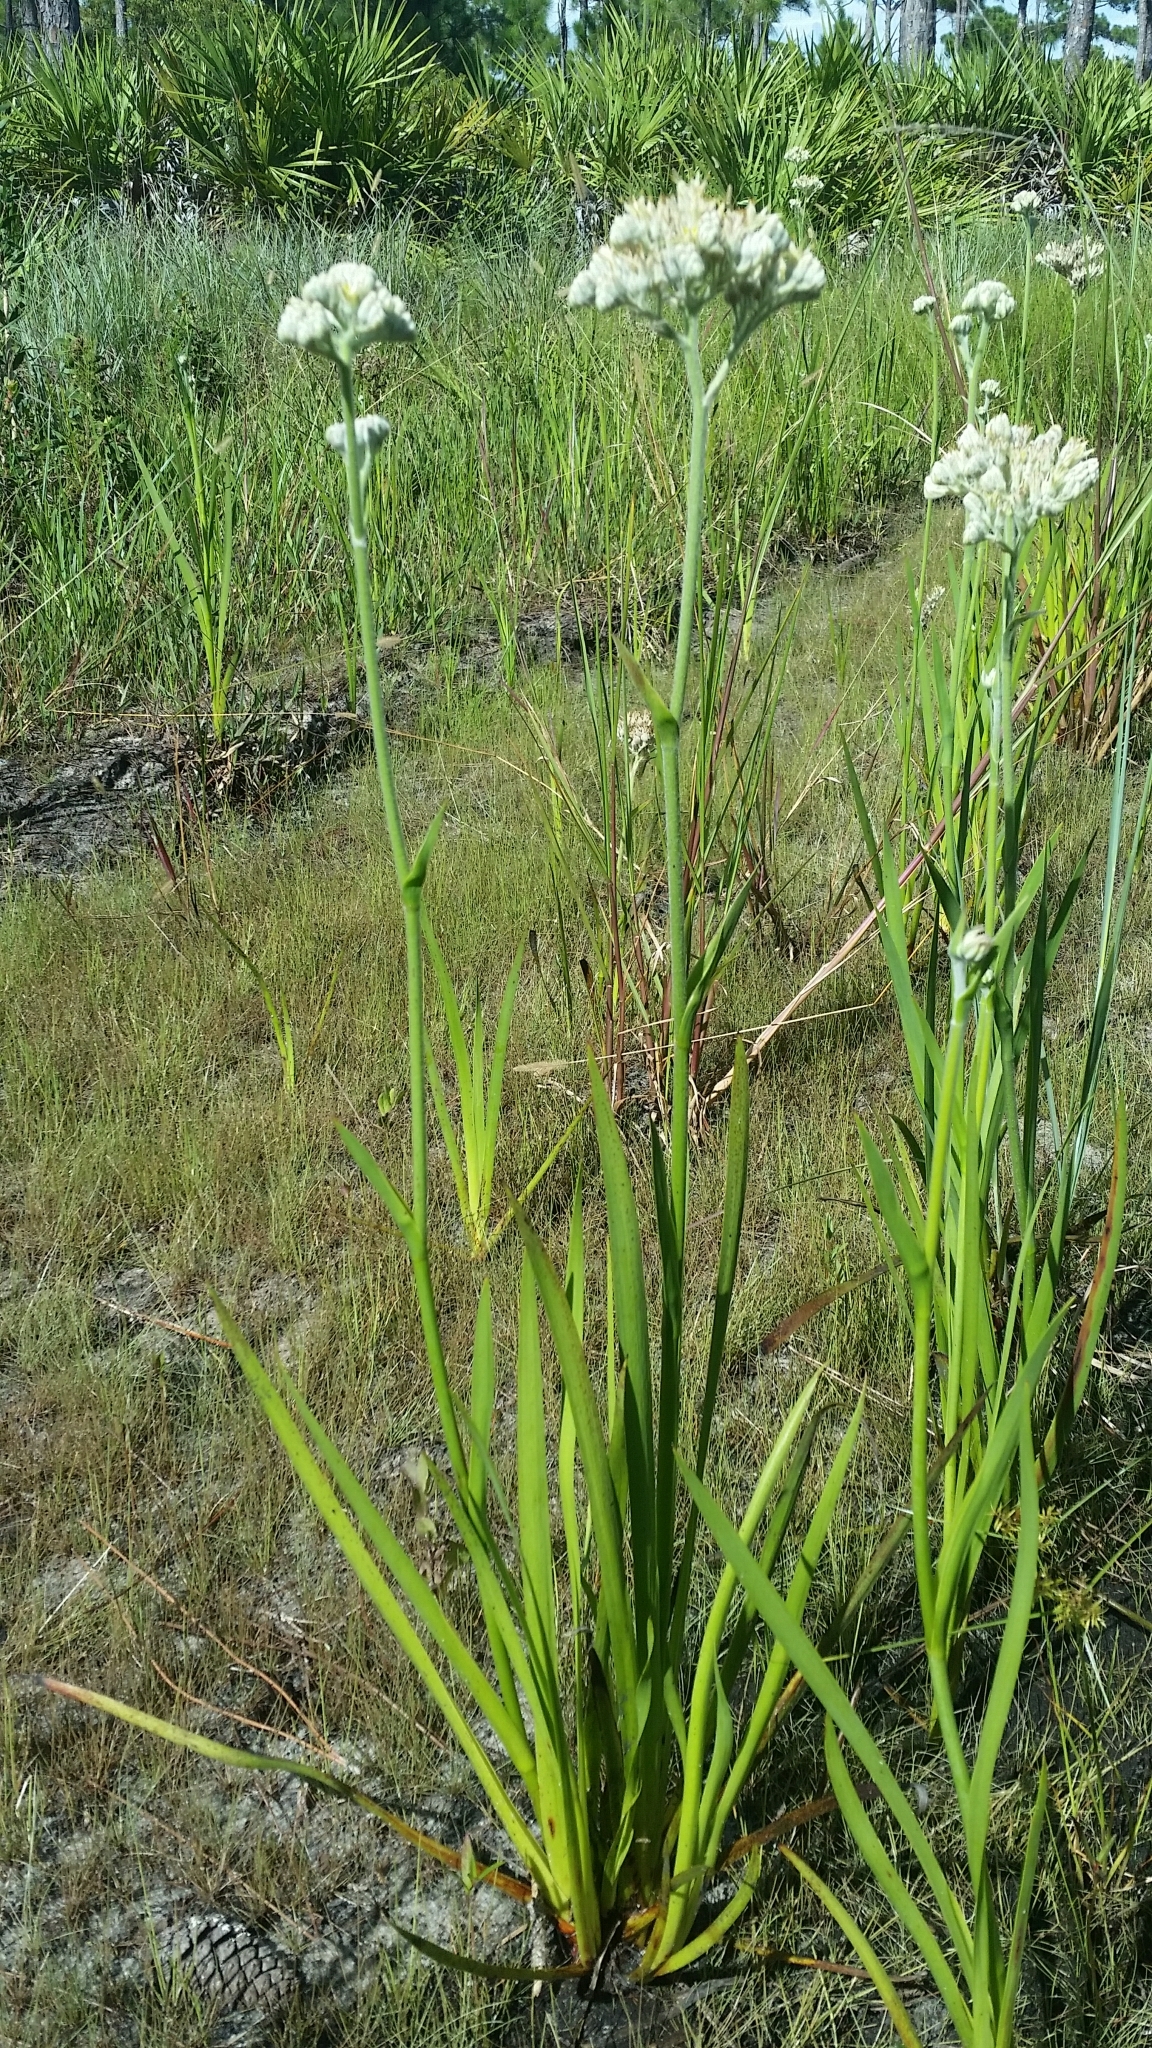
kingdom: Plantae
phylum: Tracheophyta
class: Liliopsida
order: Commelinales
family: Haemodoraceae
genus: Lachnanthes
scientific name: Lachnanthes caroliana
